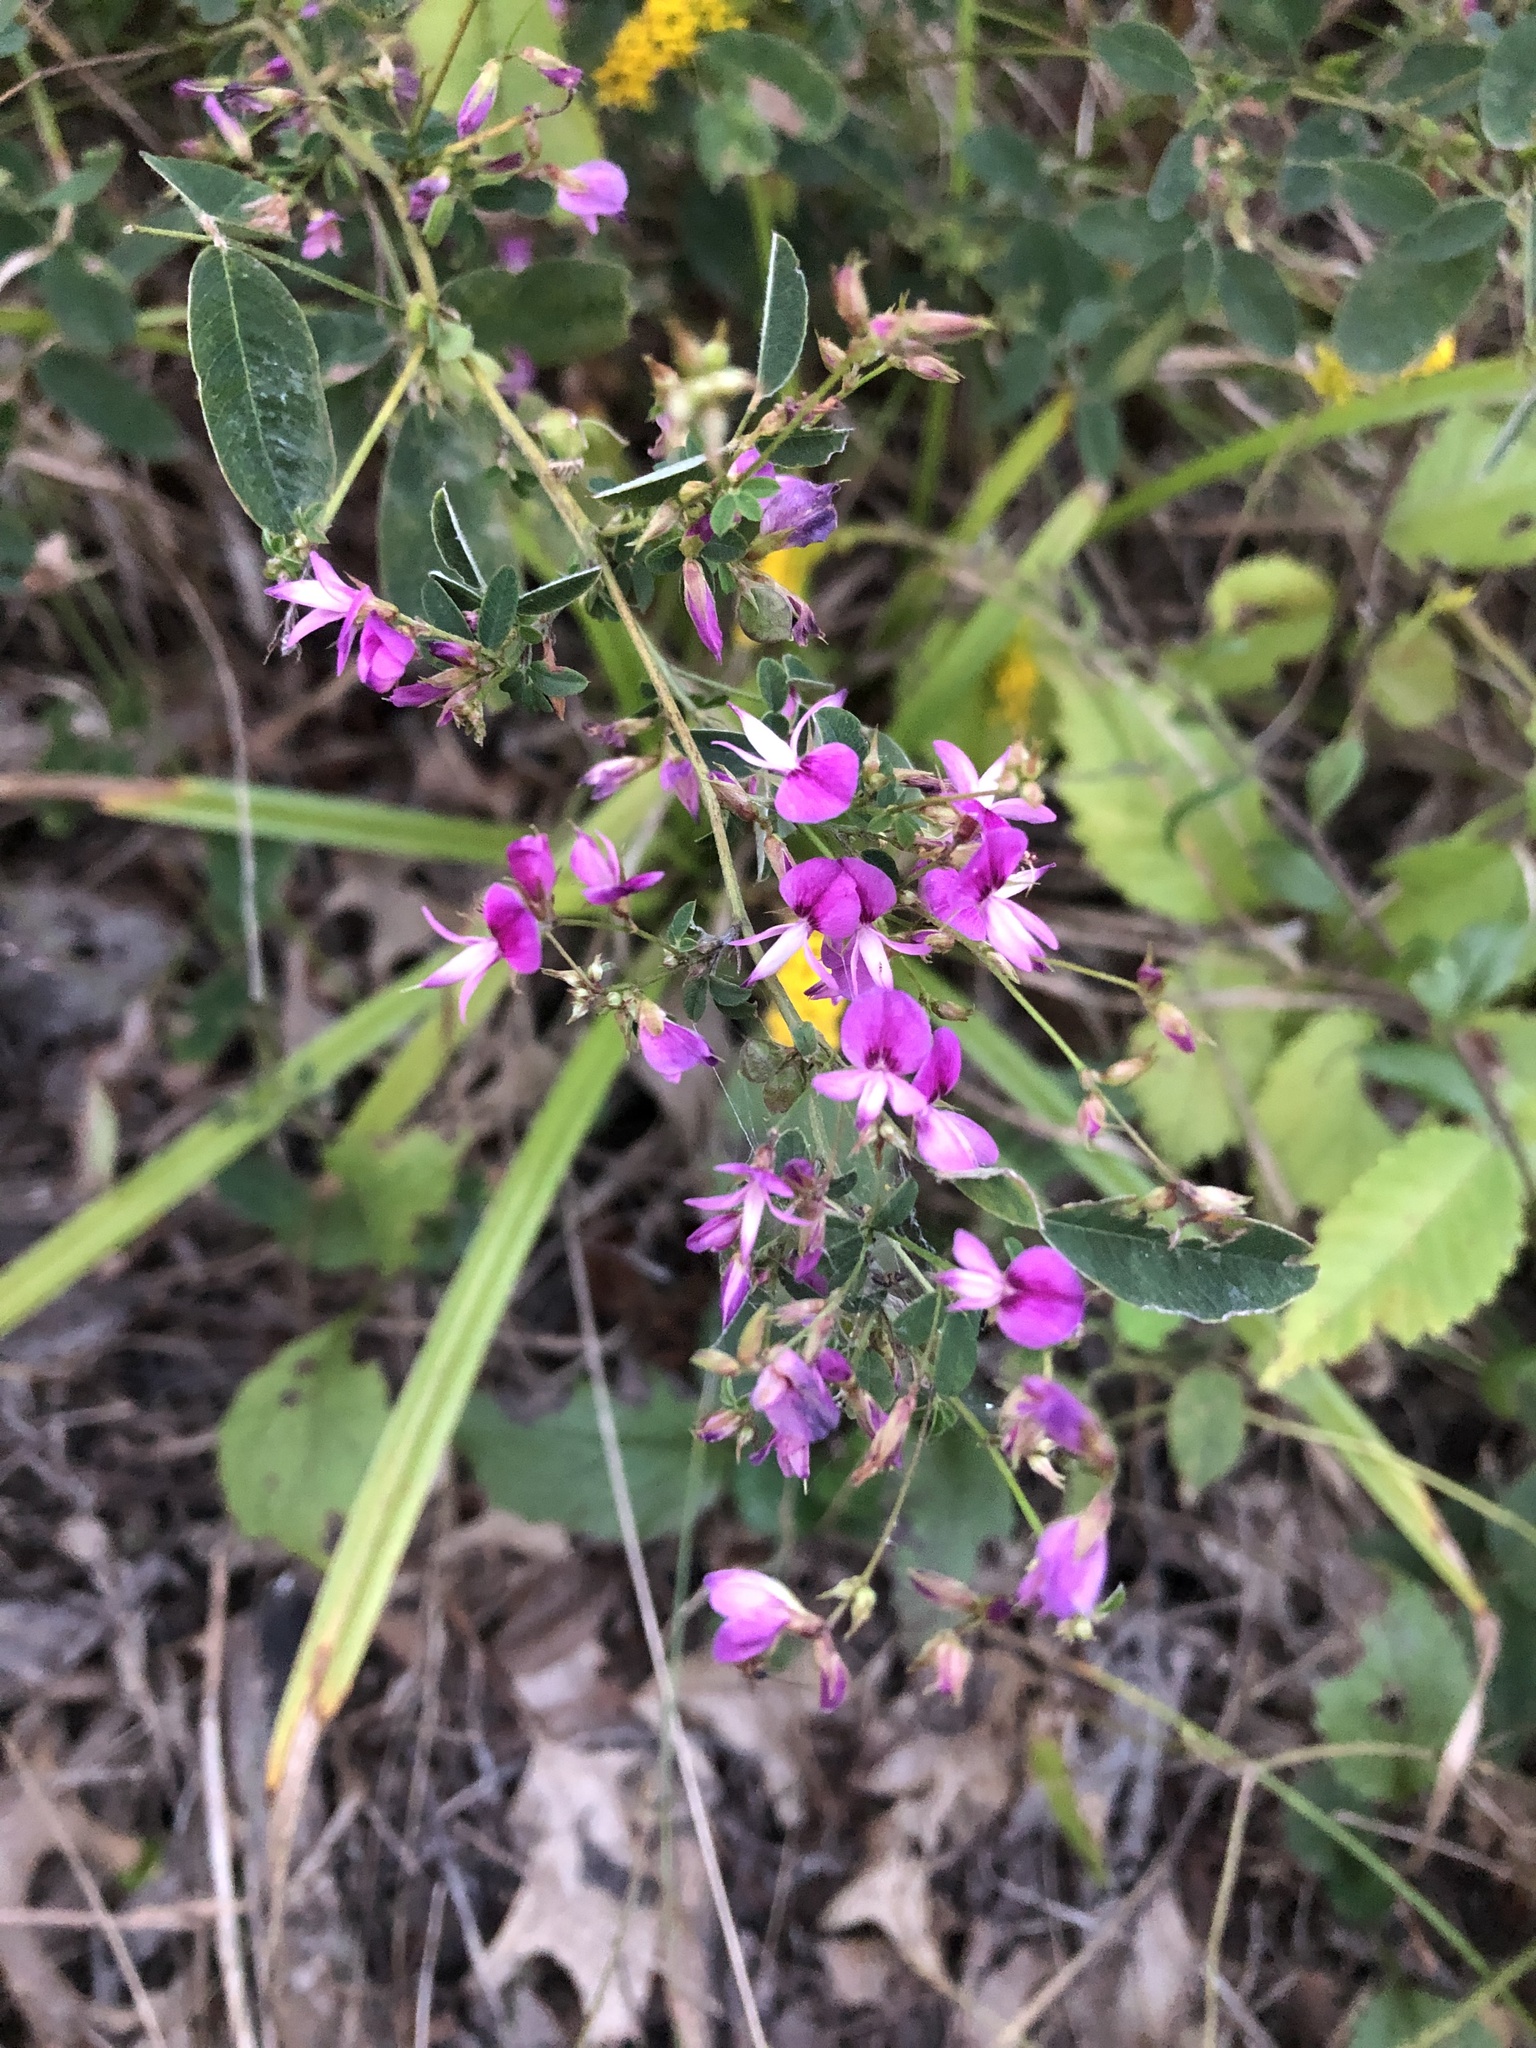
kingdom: Plantae
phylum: Tracheophyta
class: Magnoliopsida
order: Fabales
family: Fabaceae
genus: Lespedeza
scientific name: Lespedeza violacea
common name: Wand bush-clover
